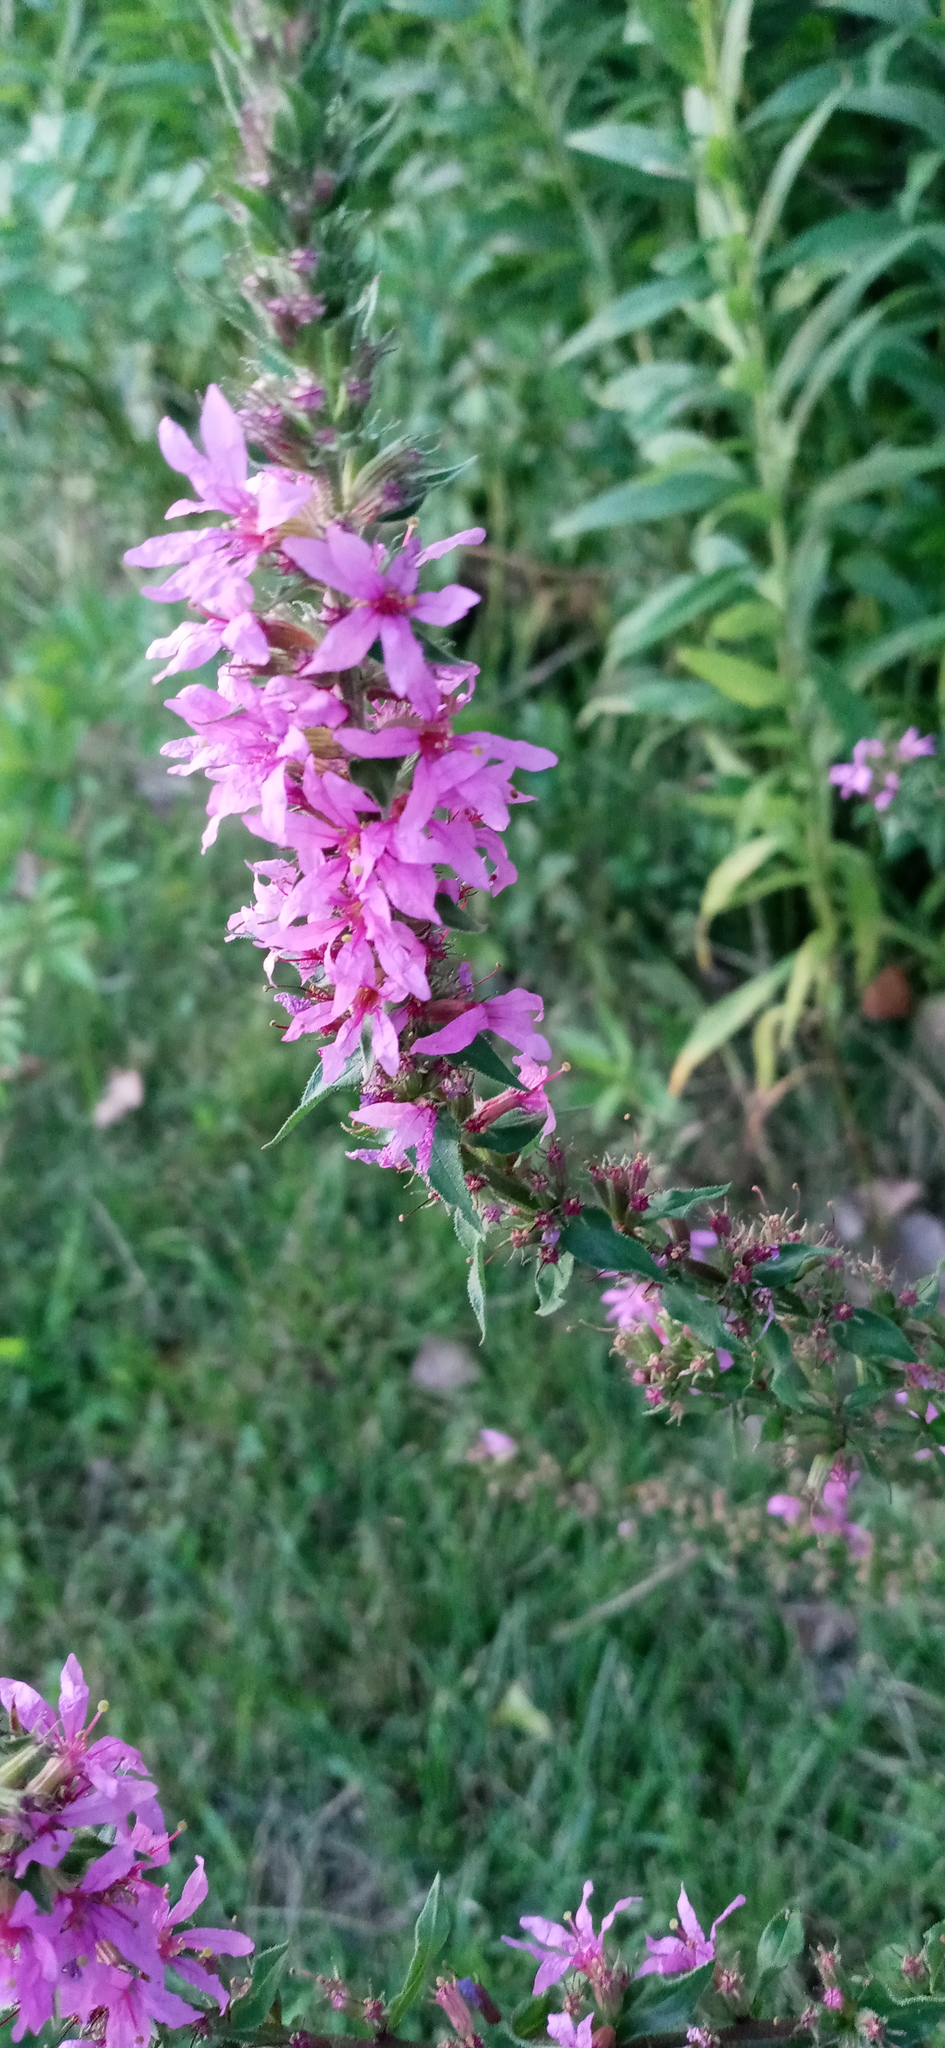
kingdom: Plantae
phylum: Tracheophyta
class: Magnoliopsida
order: Myrtales
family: Lythraceae
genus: Lythrum
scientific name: Lythrum salicaria
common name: Purple loosestrife
